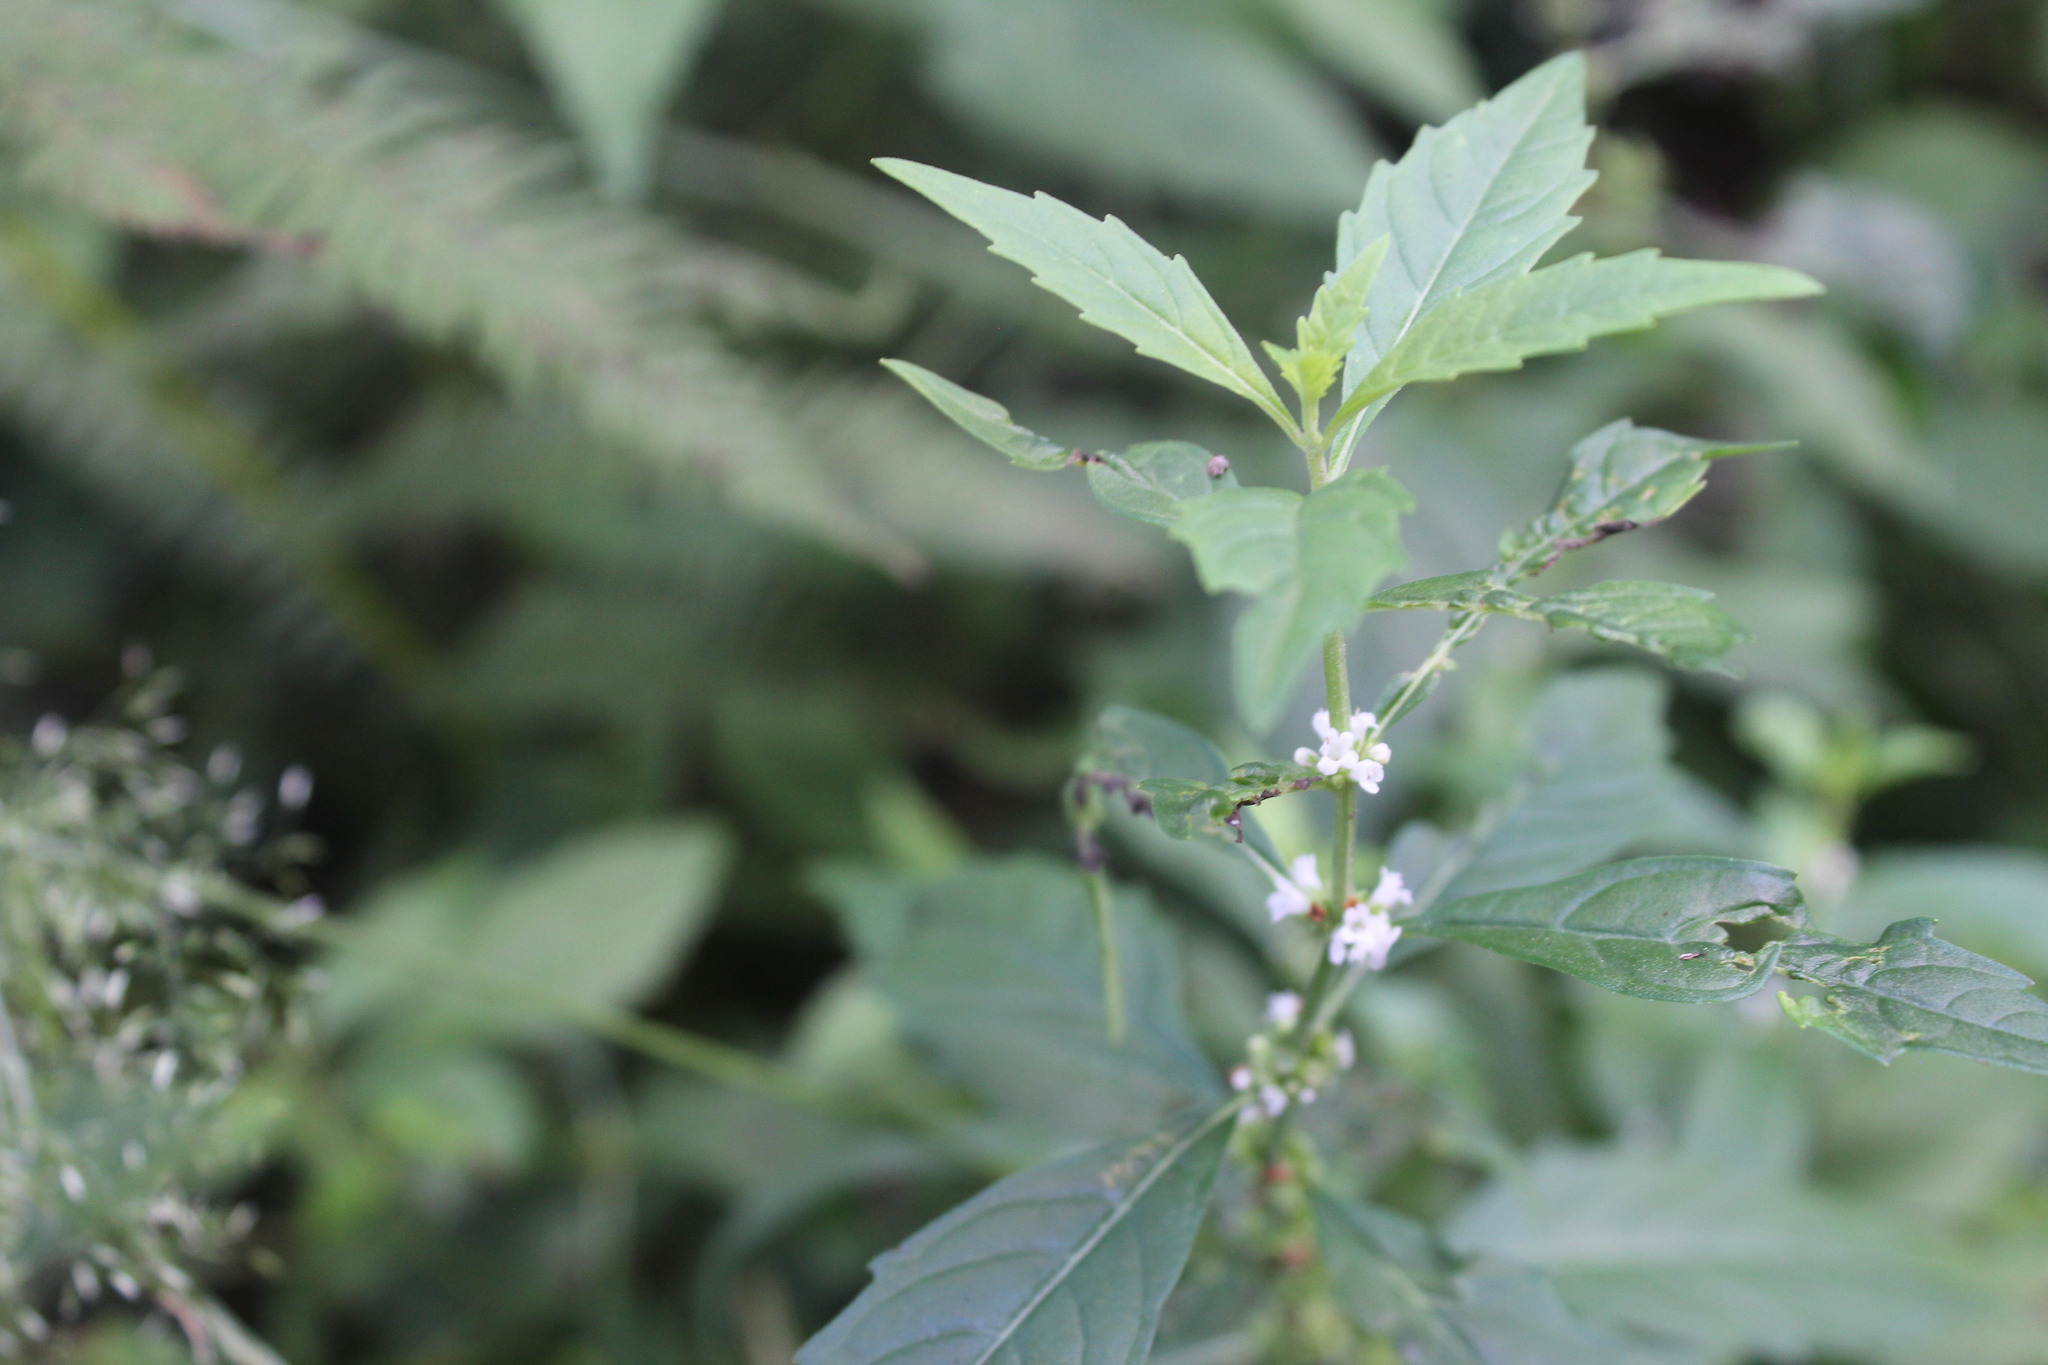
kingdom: Plantae
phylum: Tracheophyta
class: Magnoliopsida
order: Lamiales
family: Lamiaceae
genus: Lycopus
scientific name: Lycopus uniflorus
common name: Northern bugleweed
